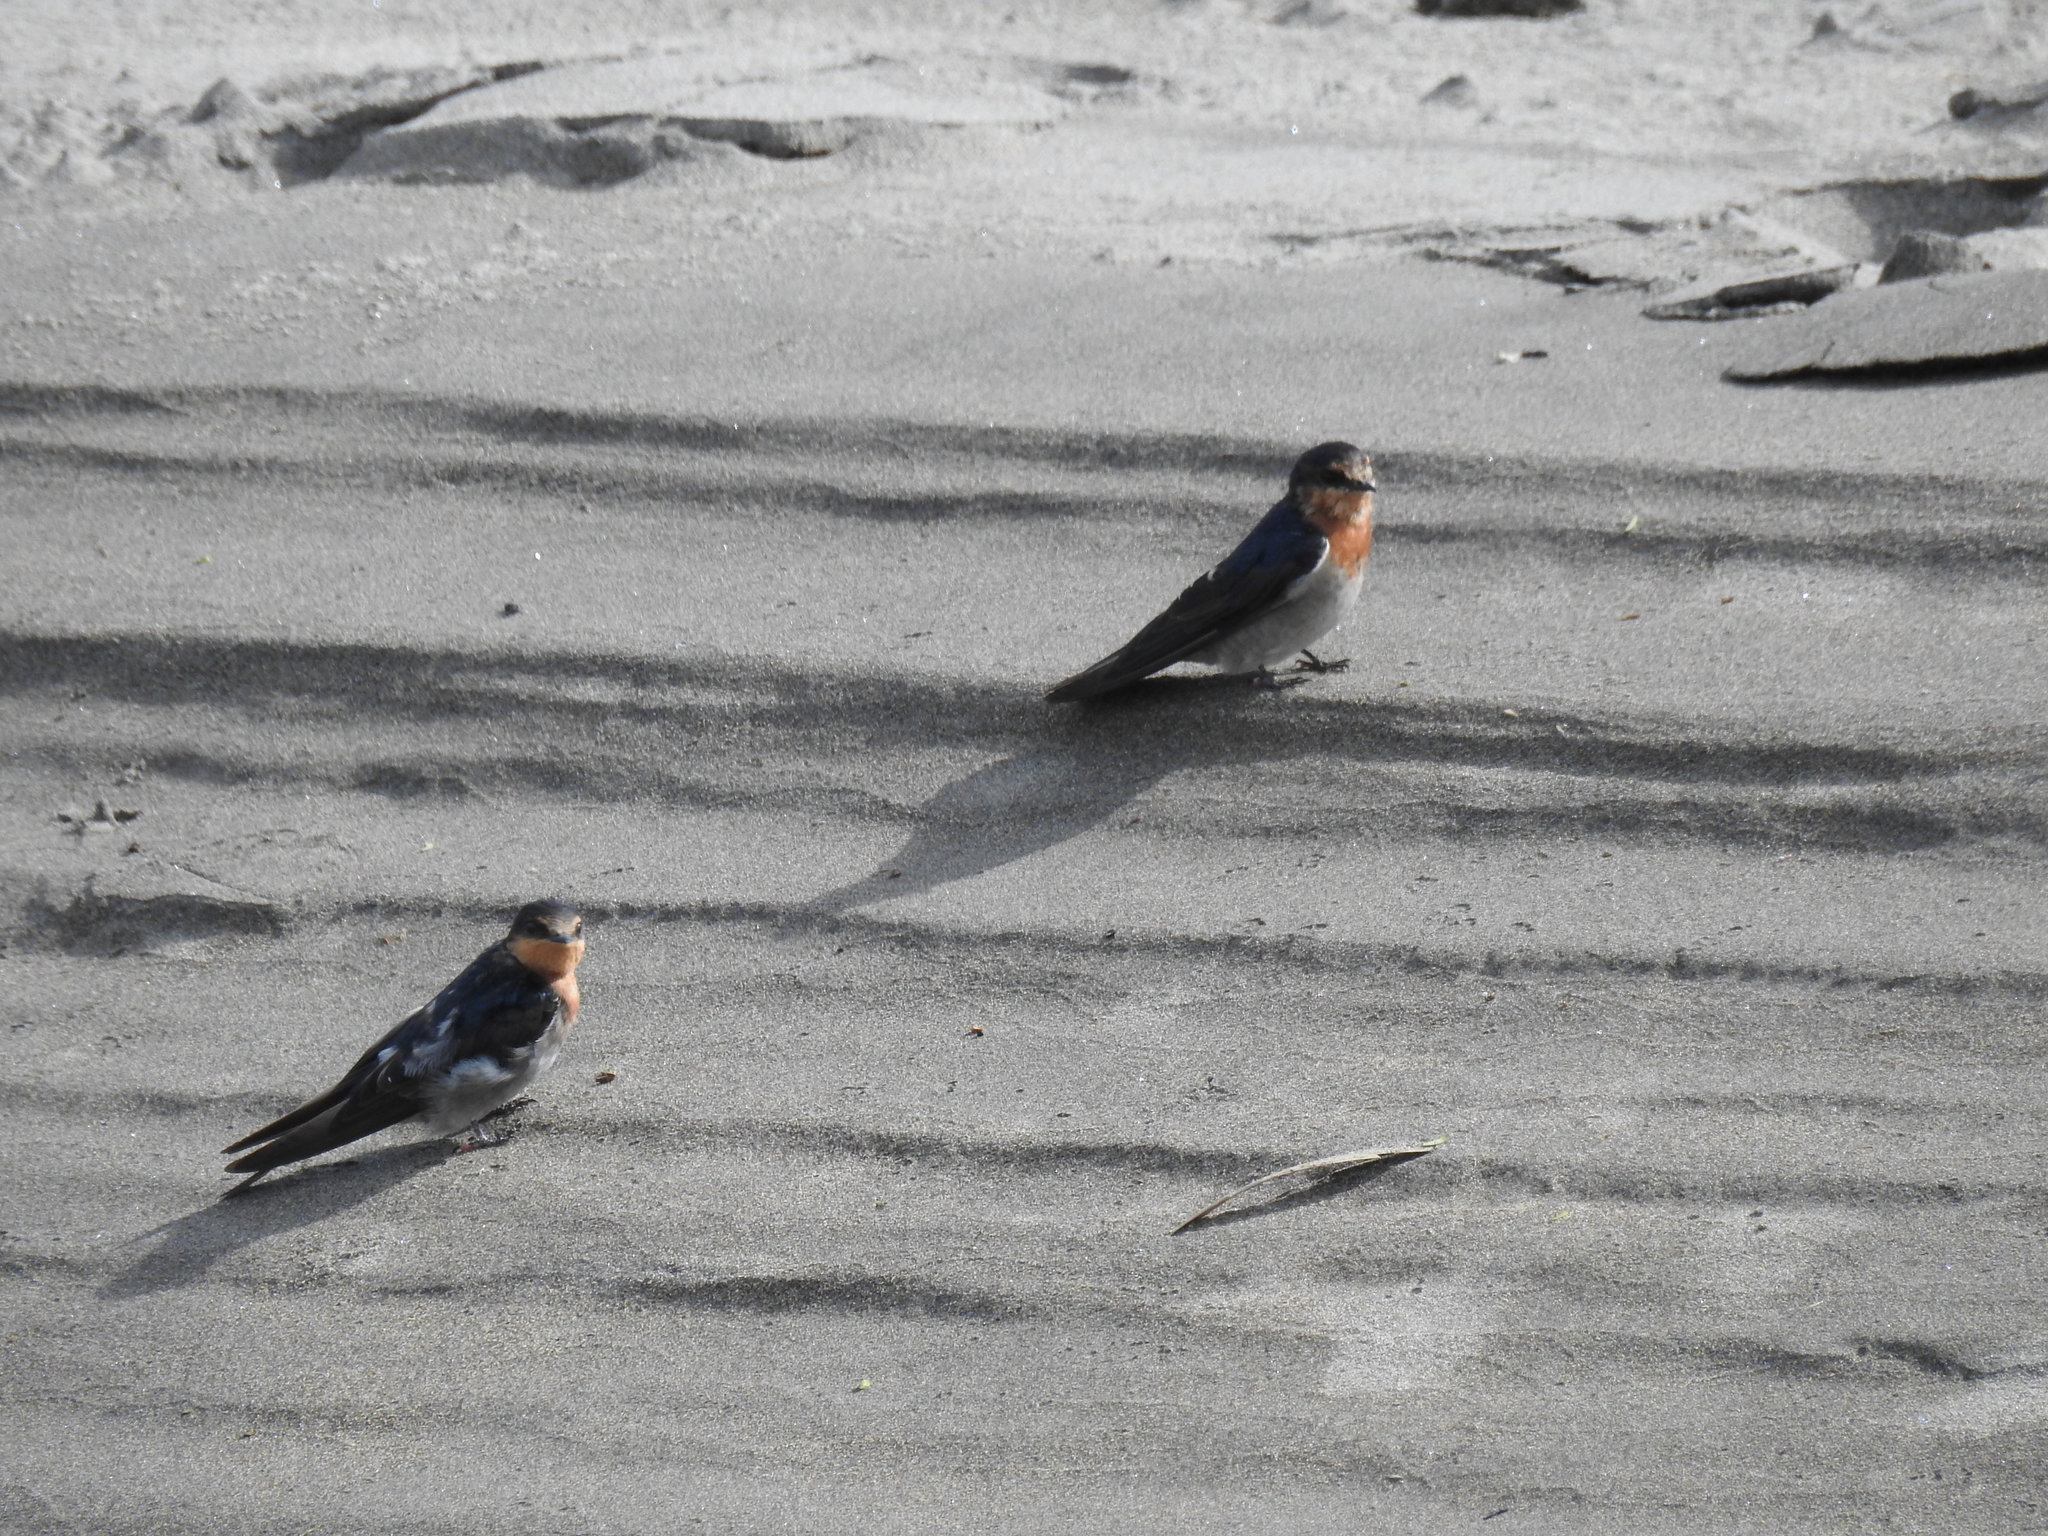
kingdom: Animalia
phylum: Chordata
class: Aves
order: Passeriformes
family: Hirundinidae
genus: Hirundo
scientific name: Hirundo neoxena
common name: Welcome swallow
